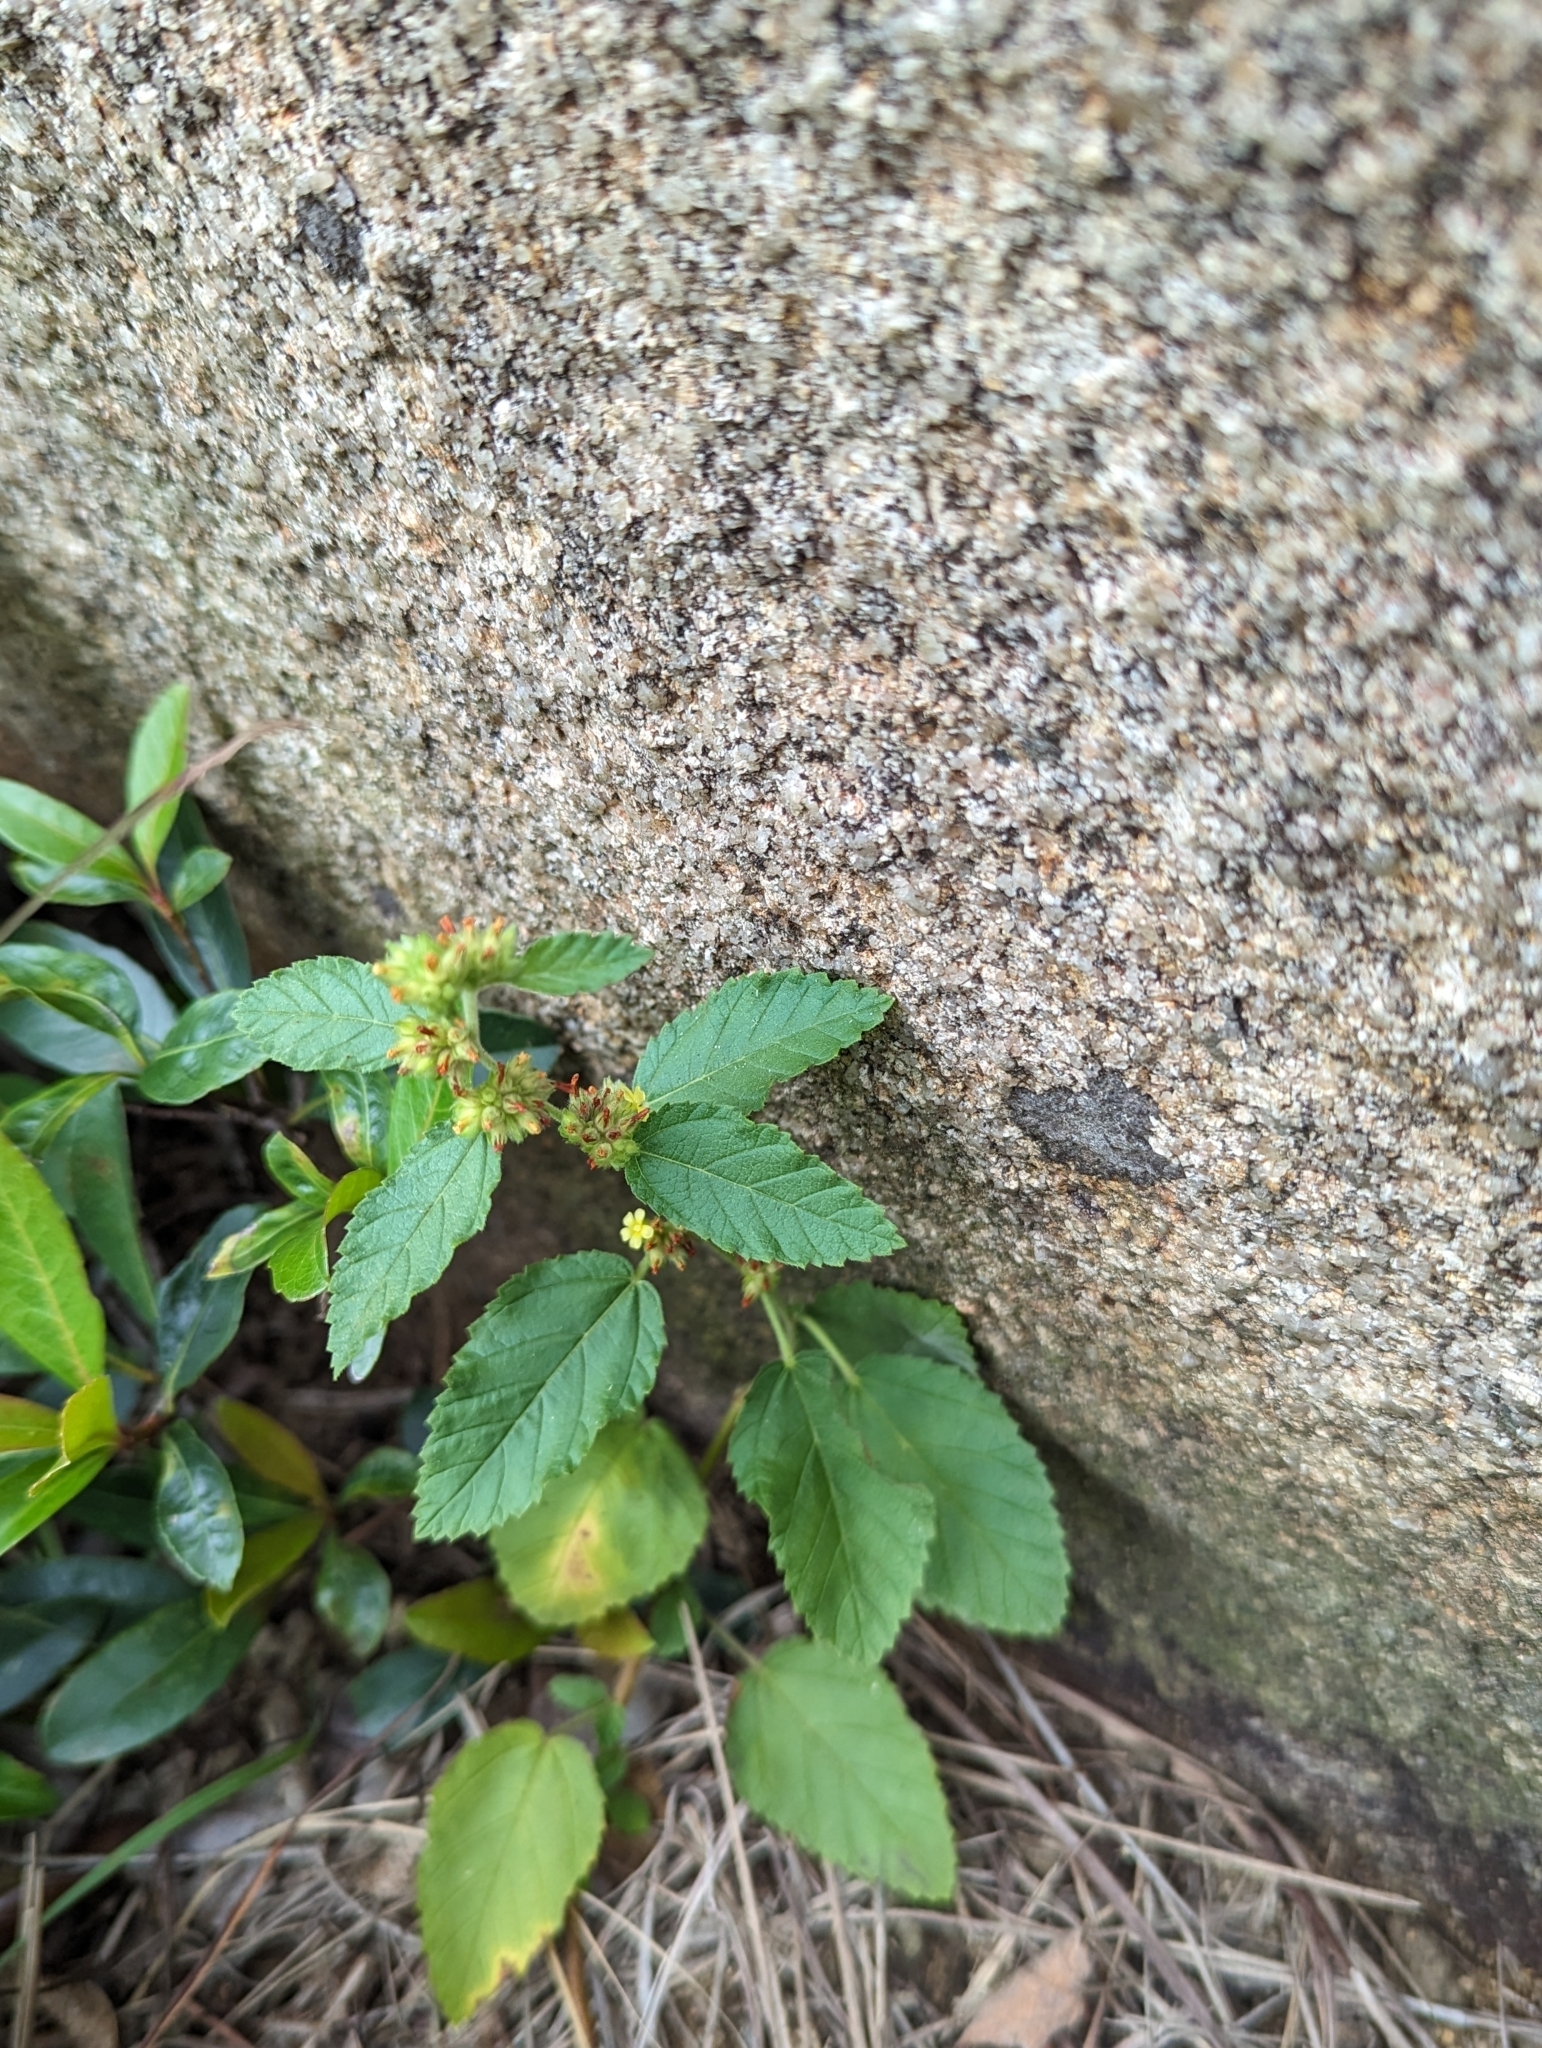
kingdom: Plantae
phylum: Tracheophyta
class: Magnoliopsida
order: Malvales
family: Malvaceae
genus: Waltheria
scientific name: Waltheria indica
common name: Leather-coat
